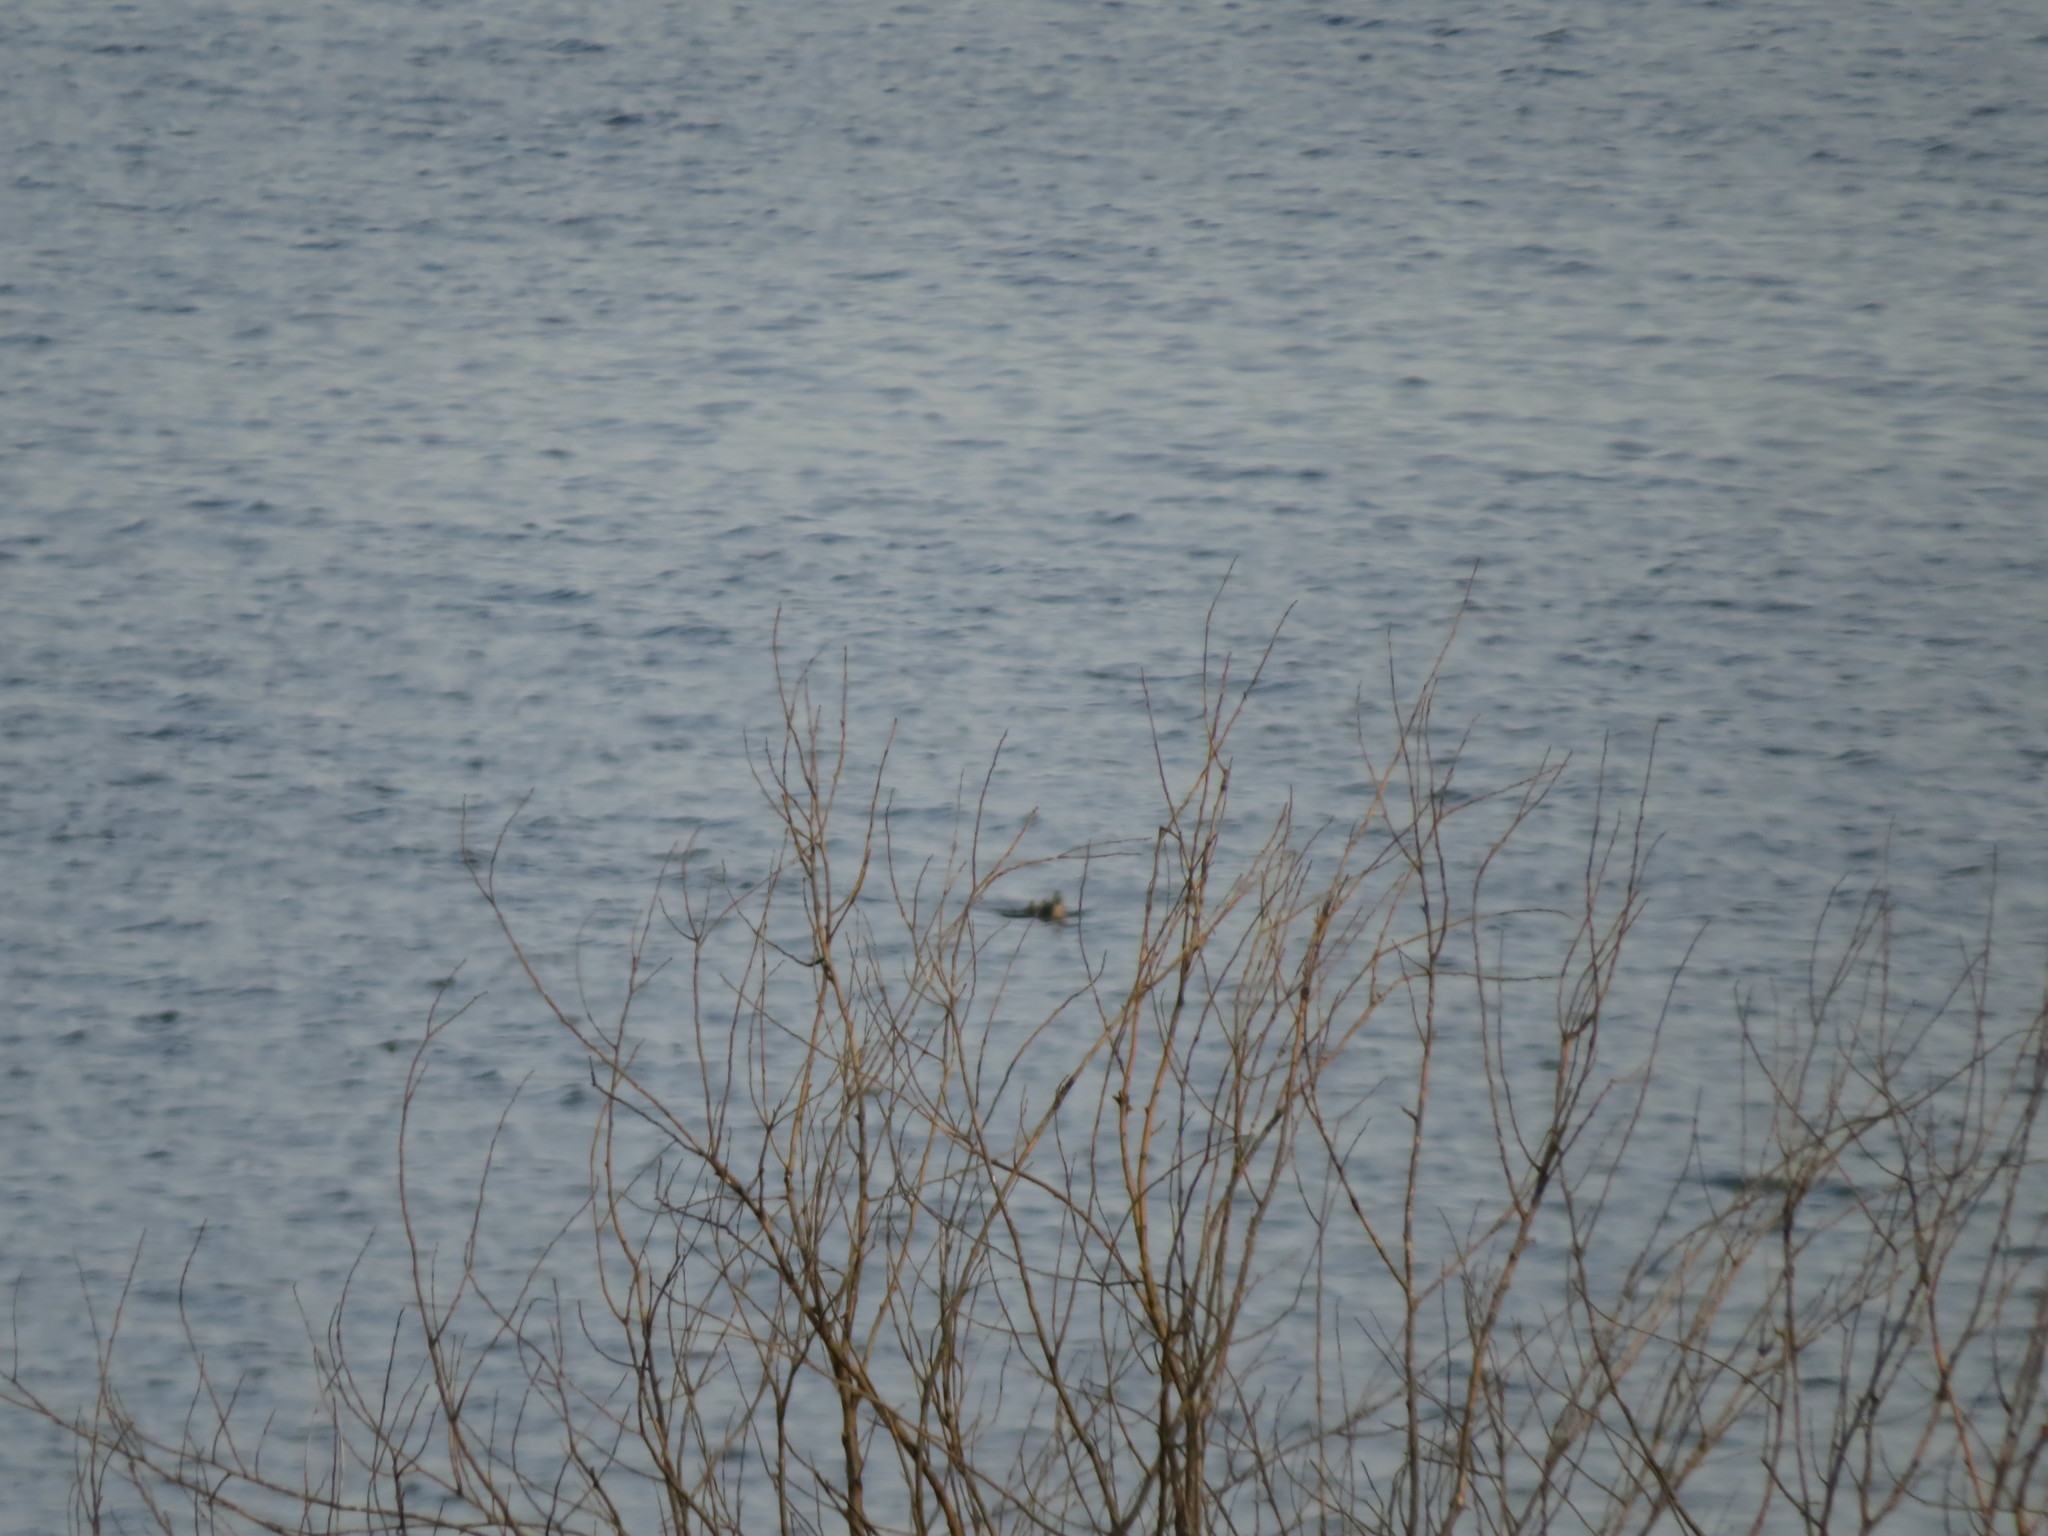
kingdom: Animalia
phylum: Chordata
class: Aves
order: Anseriformes
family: Anatidae
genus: Anas
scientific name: Anas platyrhynchos
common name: Mallard
